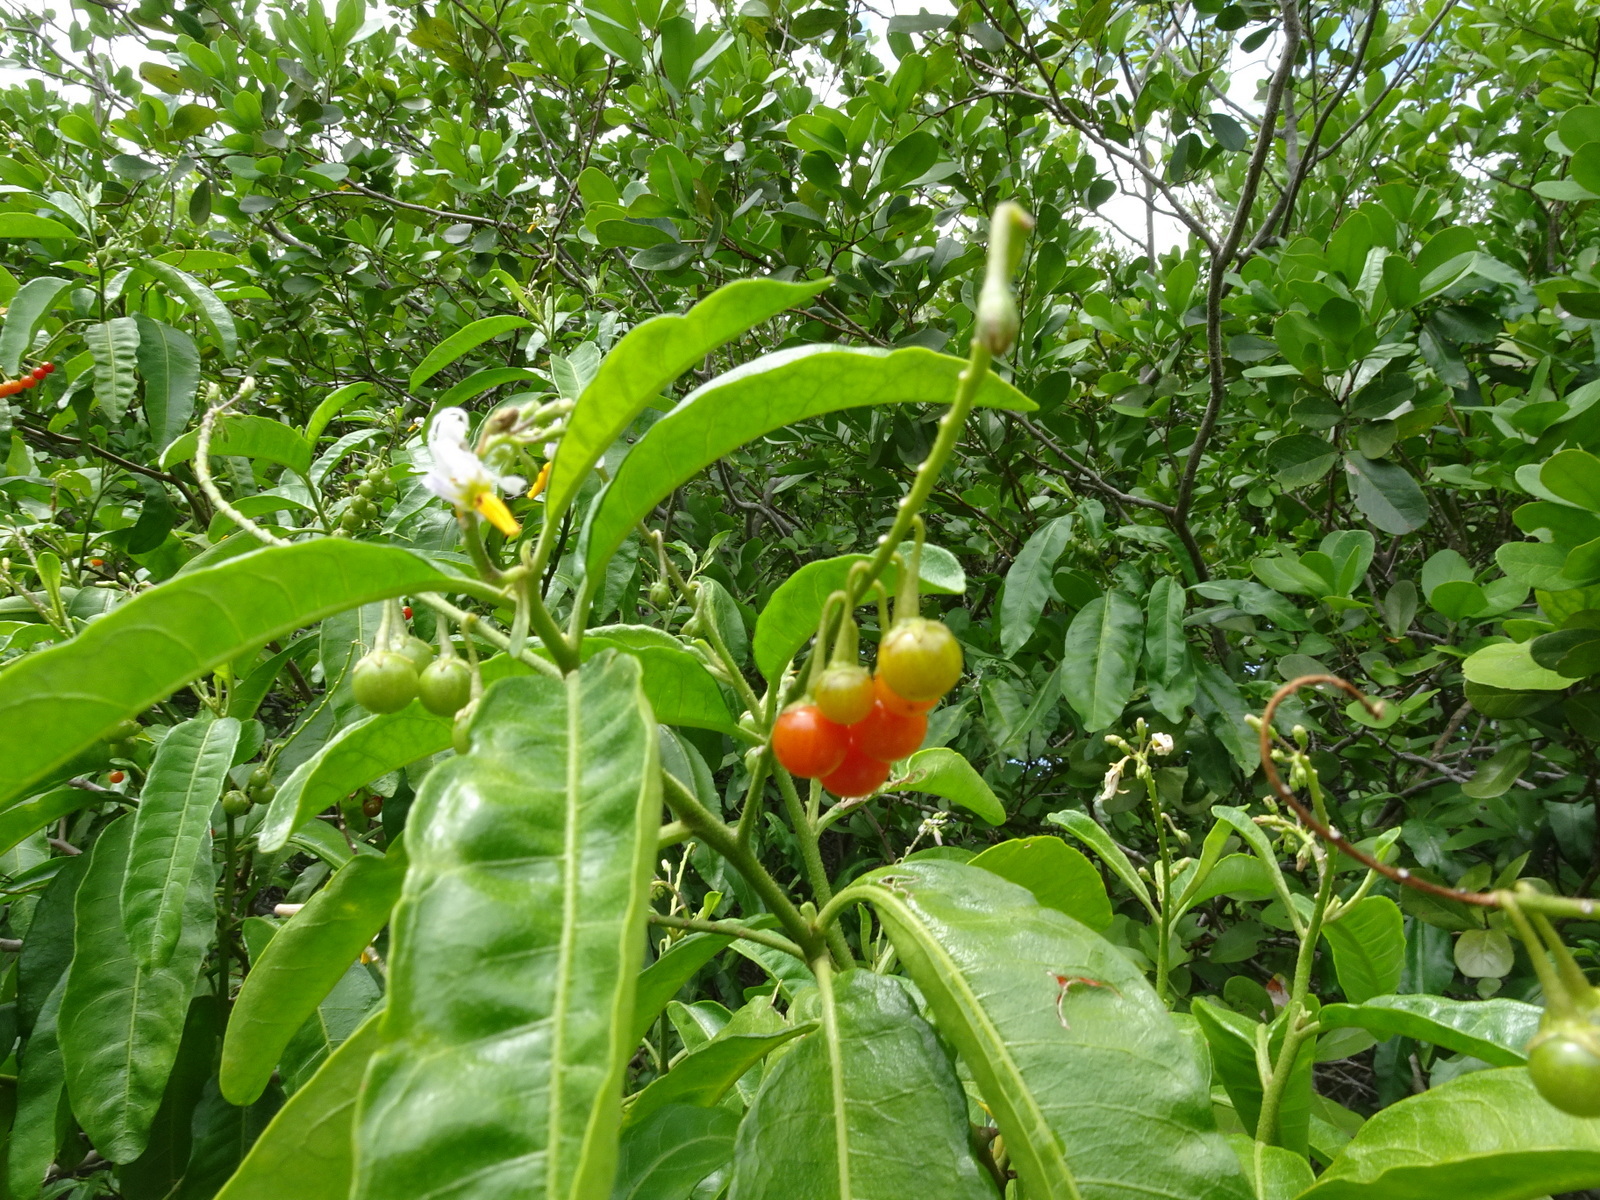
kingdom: Plantae
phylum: Tracheophyta
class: Magnoliopsida
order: Solanales
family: Solanaceae
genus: Solanum
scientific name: Solanum bahamense
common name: Canker-berry
